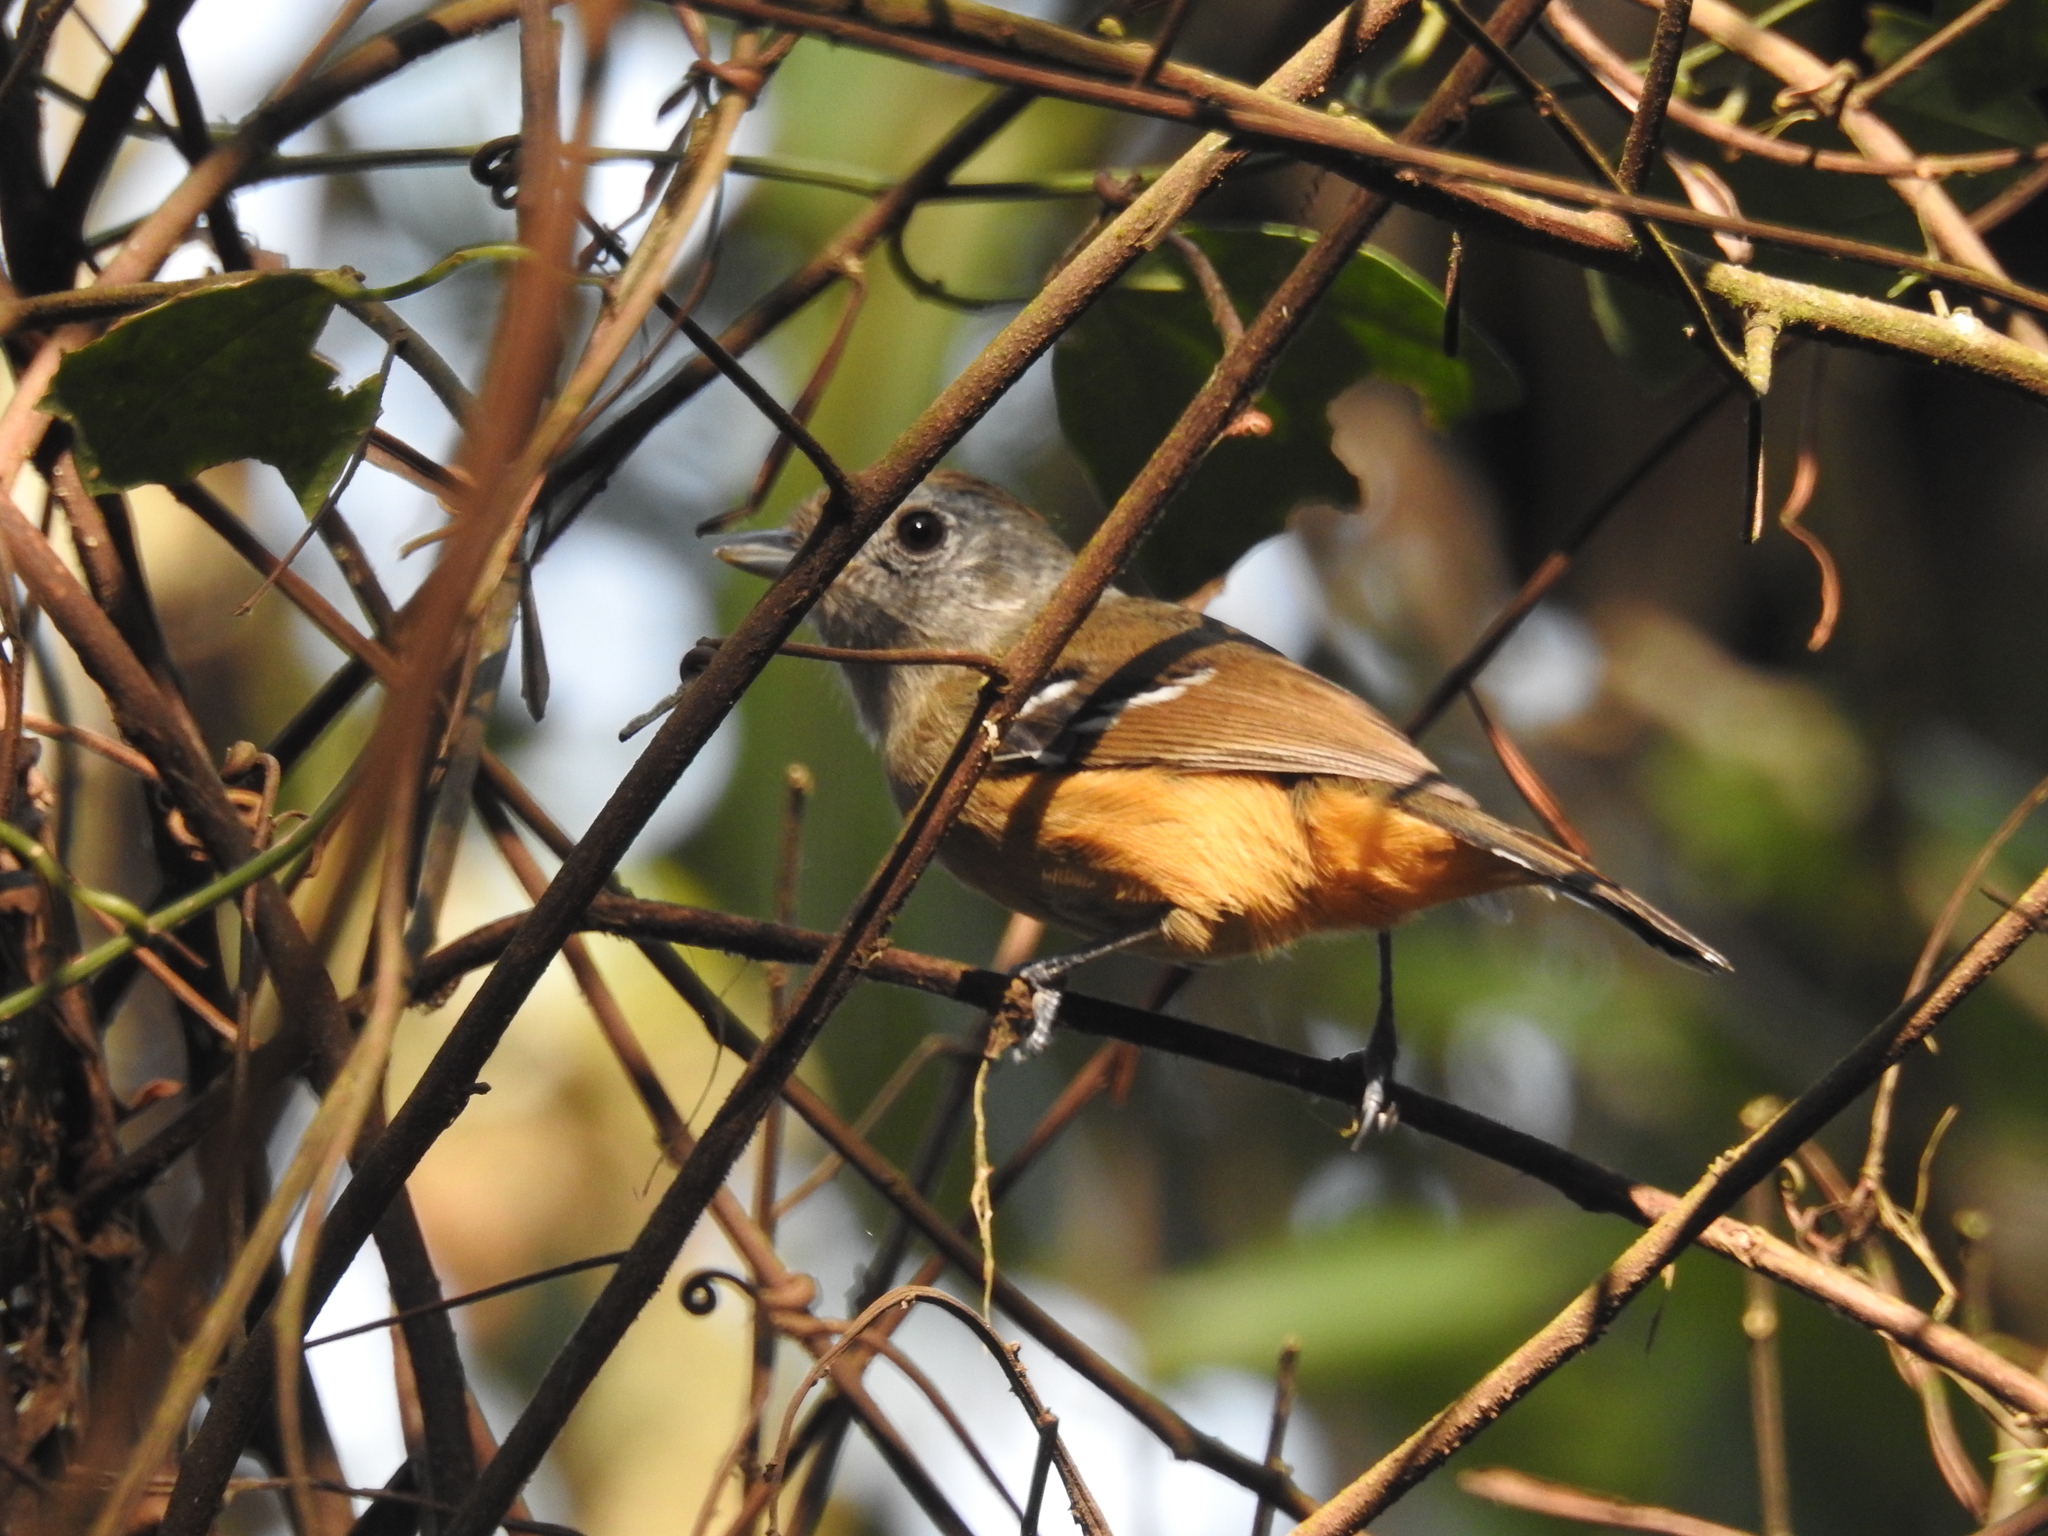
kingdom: Animalia
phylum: Chordata
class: Aves
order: Passeriformes
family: Thamnophilidae
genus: Thamnophilus
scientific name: Thamnophilus caerulescens
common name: Variable antshrike
